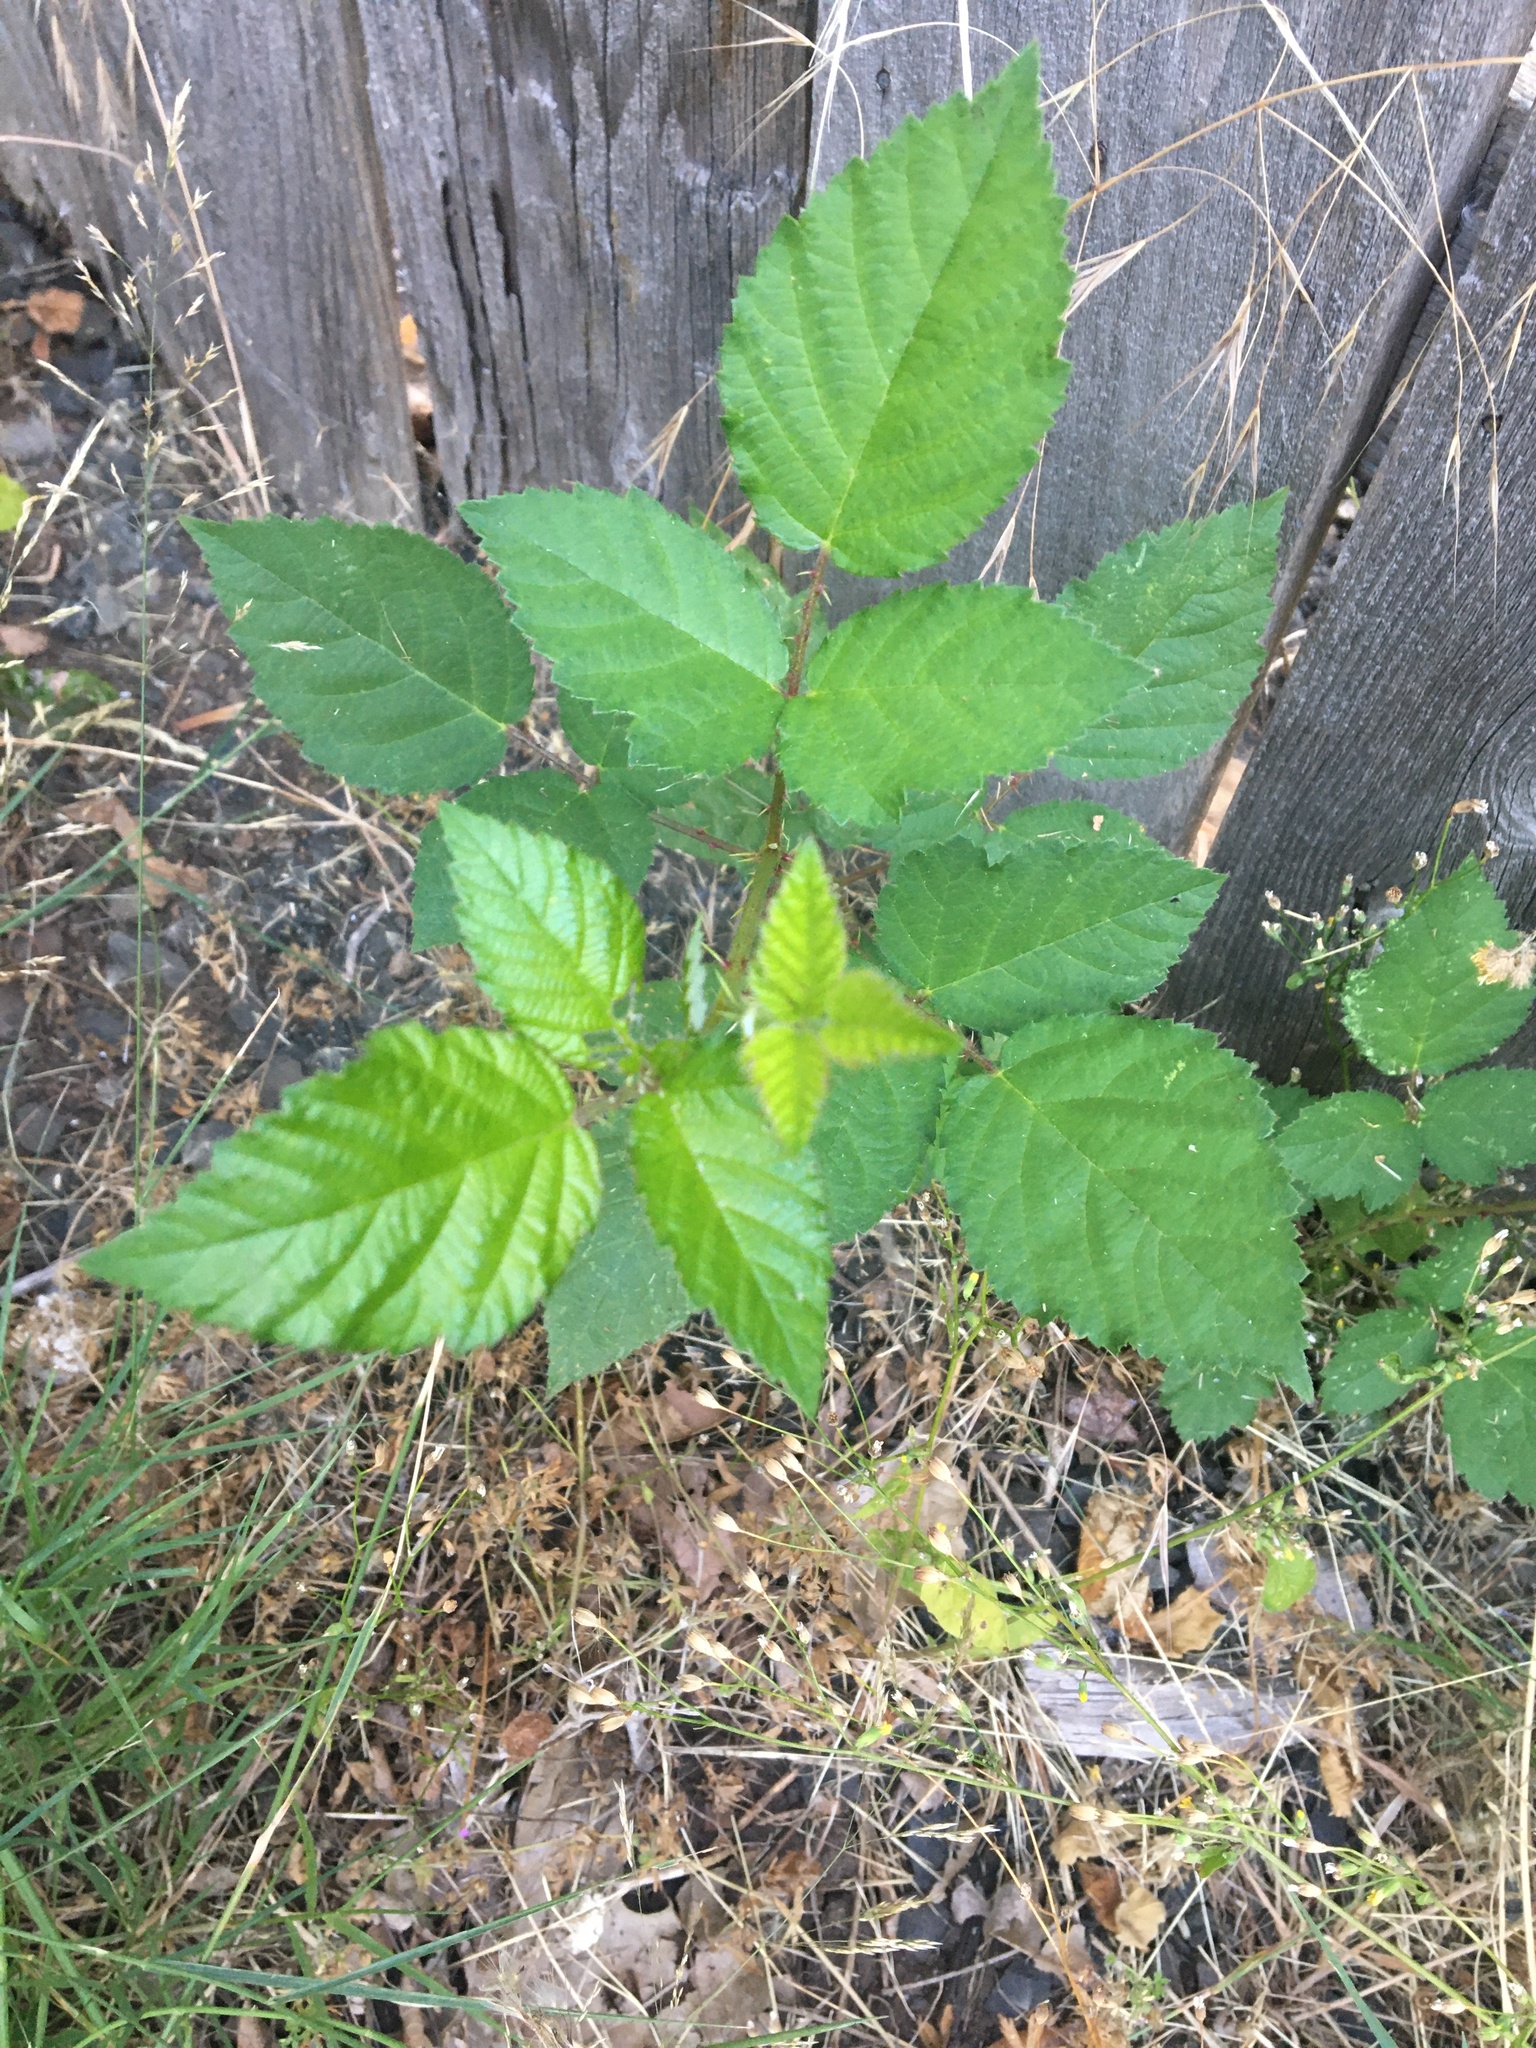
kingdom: Plantae
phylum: Tracheophyta
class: Magnoliopsida
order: Rosales
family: Rosaceae
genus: Rubus
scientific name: Rubus bifrons
